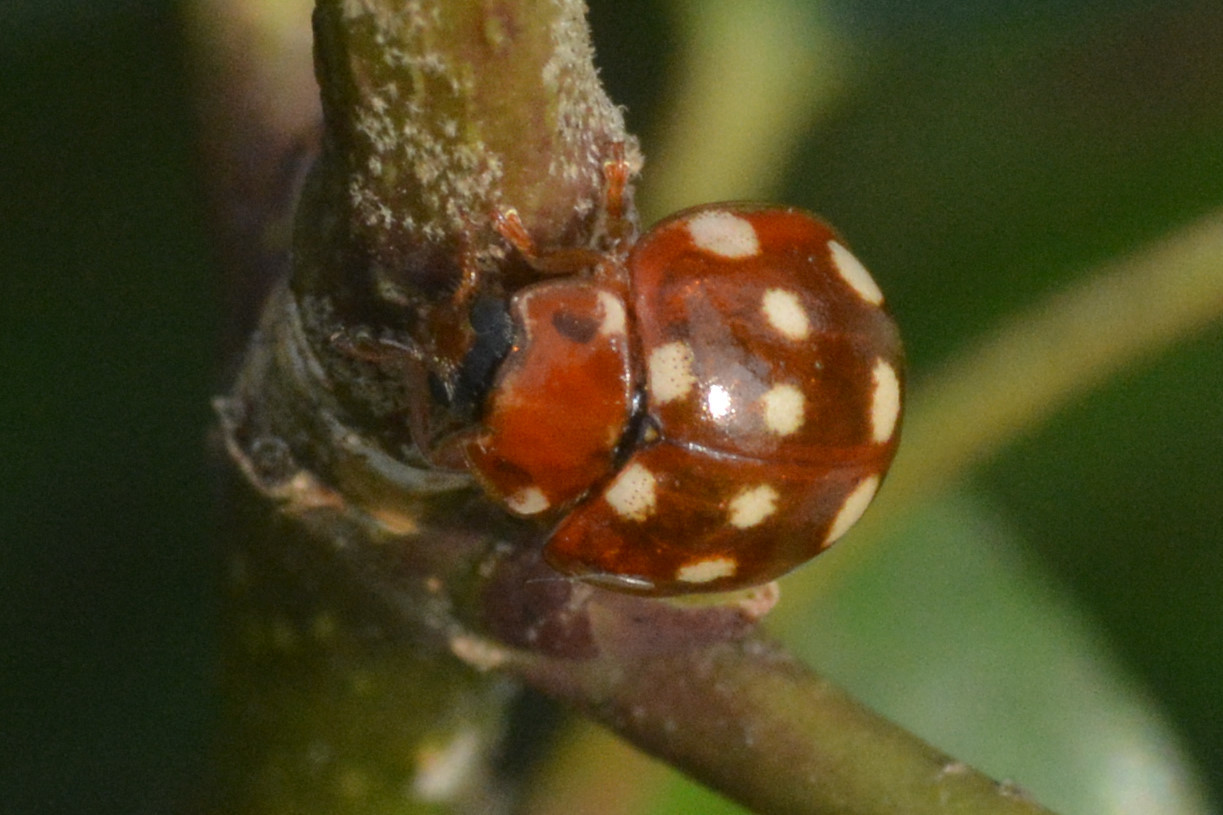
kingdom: Animalia
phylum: Arthropoda
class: Insecta
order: Coleoptera
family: Coccinellidae
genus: Calvia
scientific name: Calvia quatuordecimguttata
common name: Cream-spot ladybird
